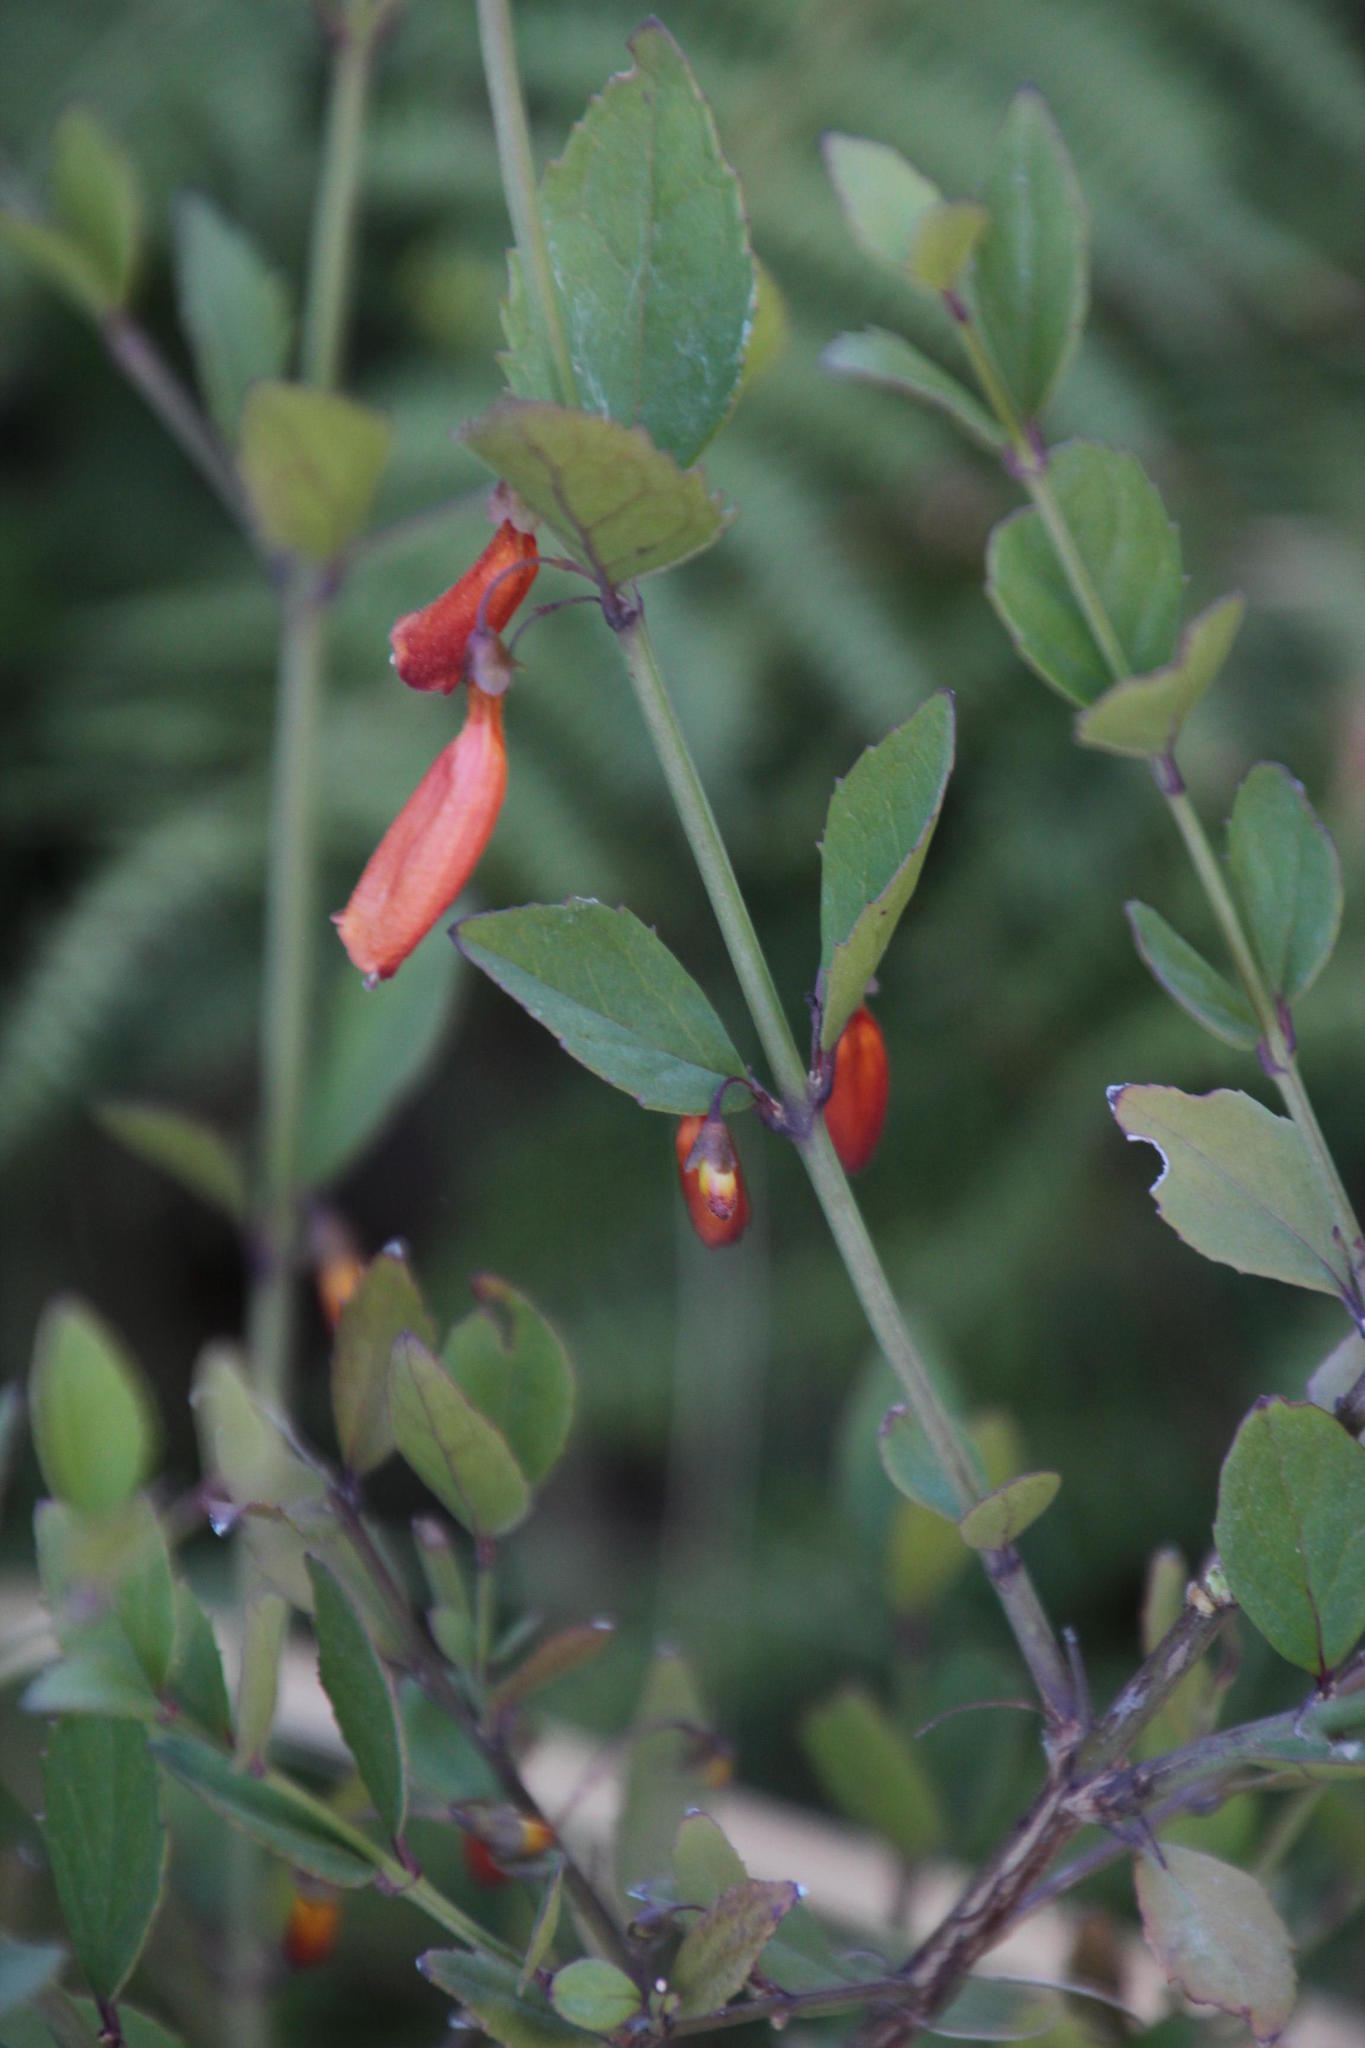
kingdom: Plantae
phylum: Tracheophyta
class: Magnoliopsida
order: Lamiales
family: Stilbaceae
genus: Halleria
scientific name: Halleria elliptica
